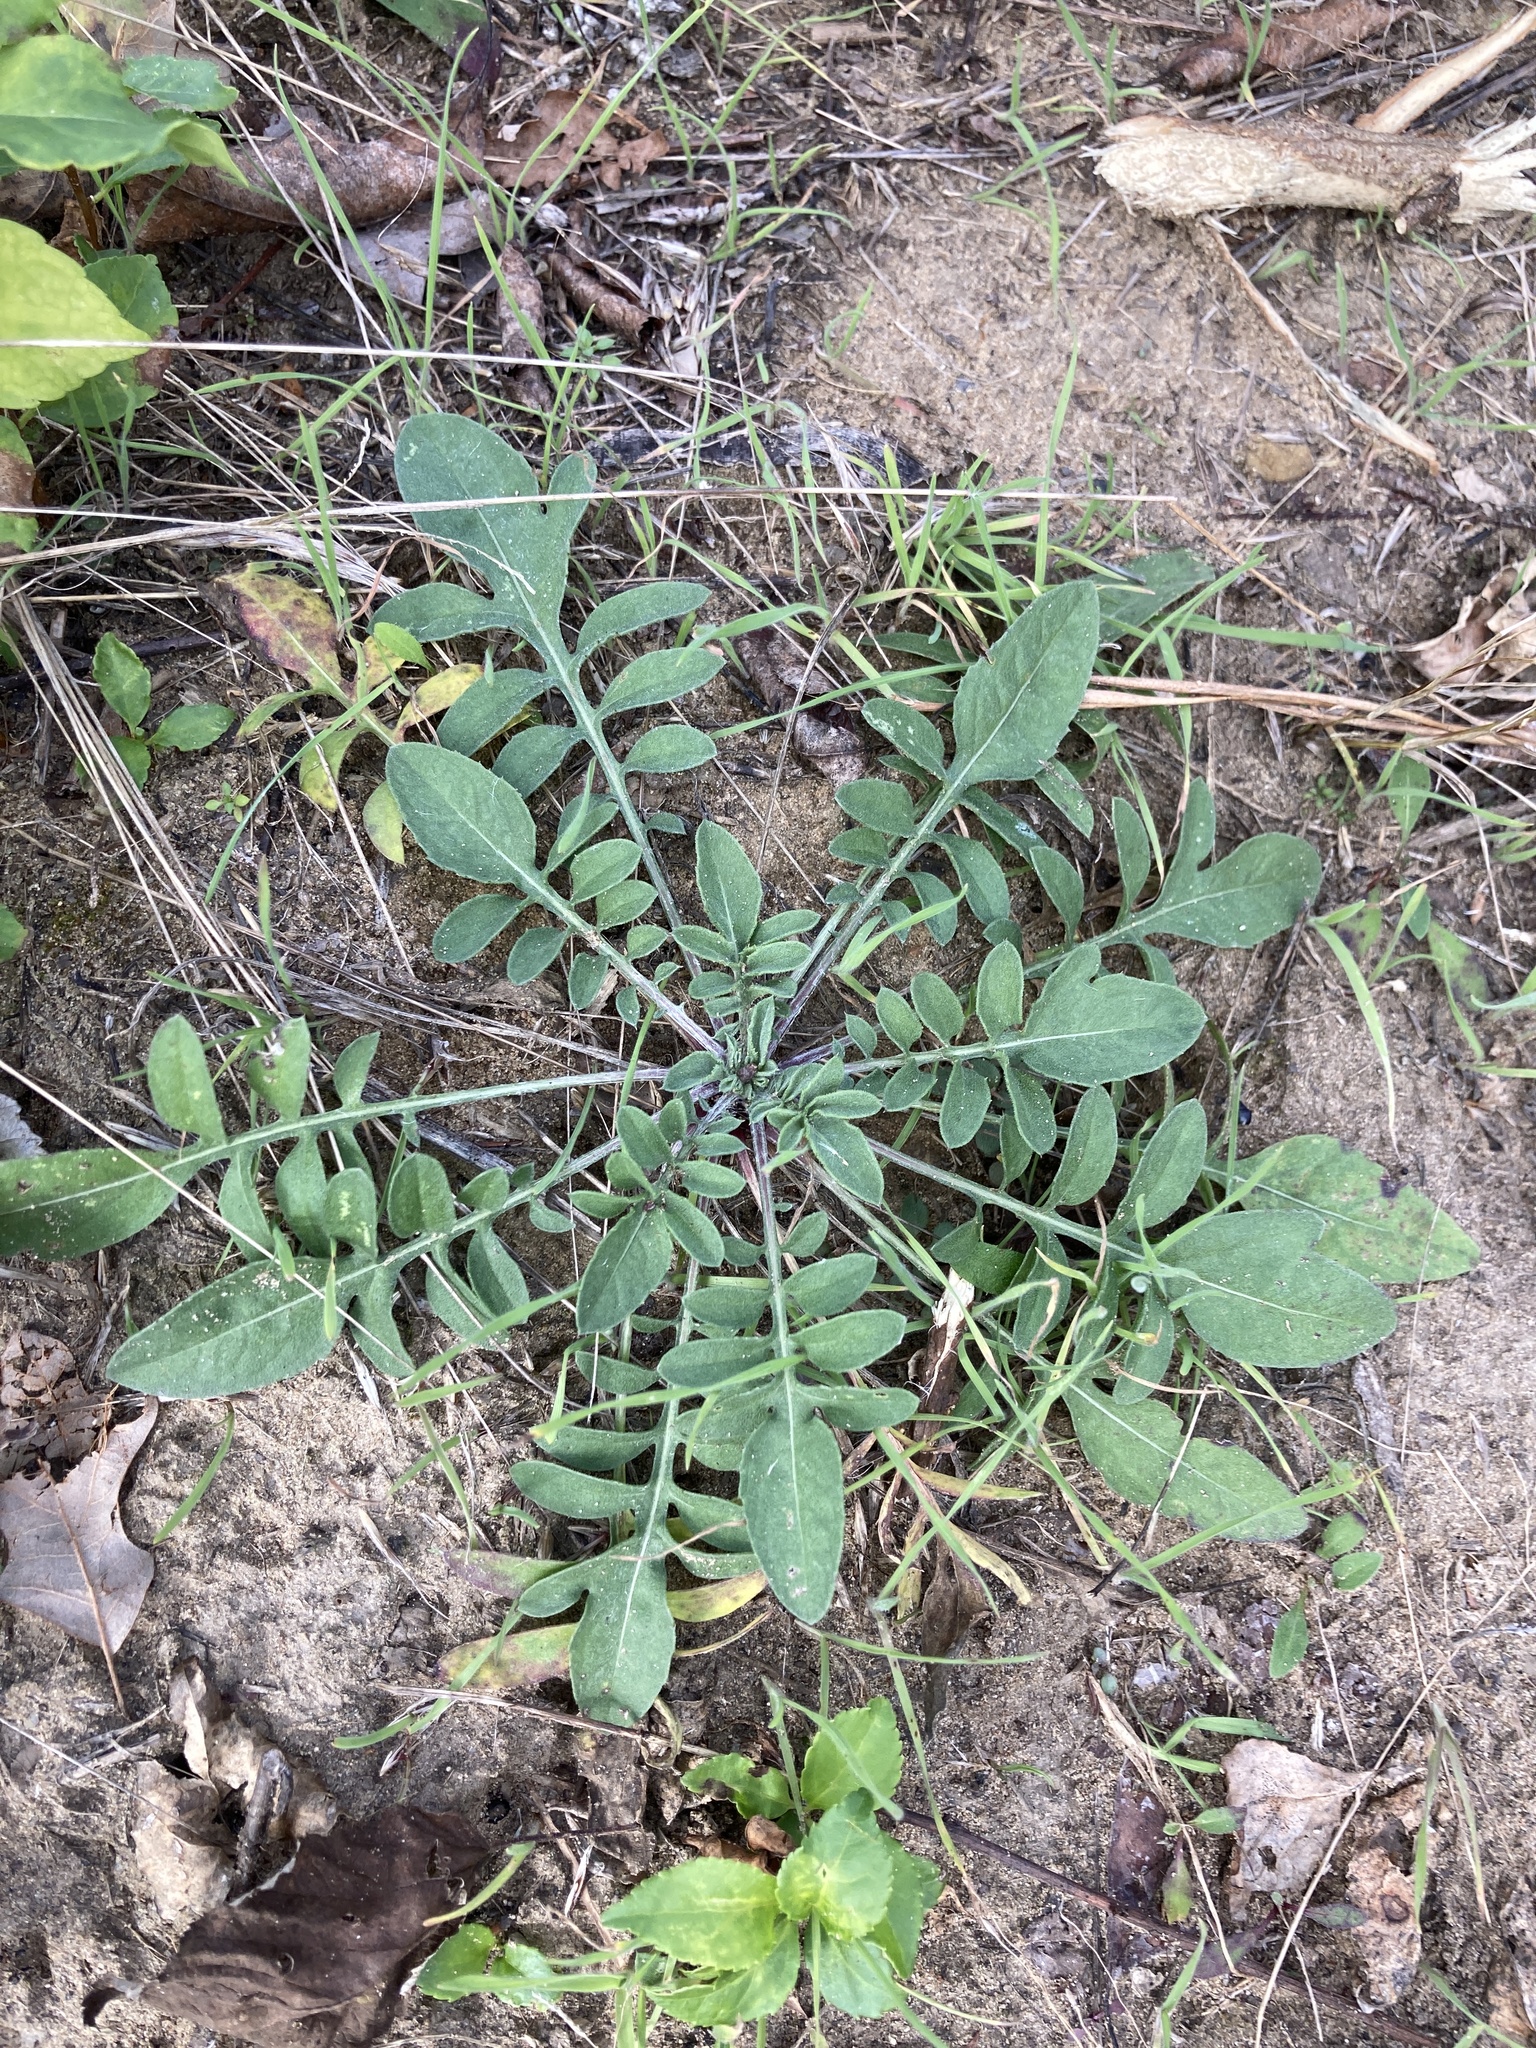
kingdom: Plantae
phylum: Tracheophyta
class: Magnoliopsida
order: Asterales
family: Asteraceae
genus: Centaurea
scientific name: Centaurea stoebe
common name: Spotted knapweed
